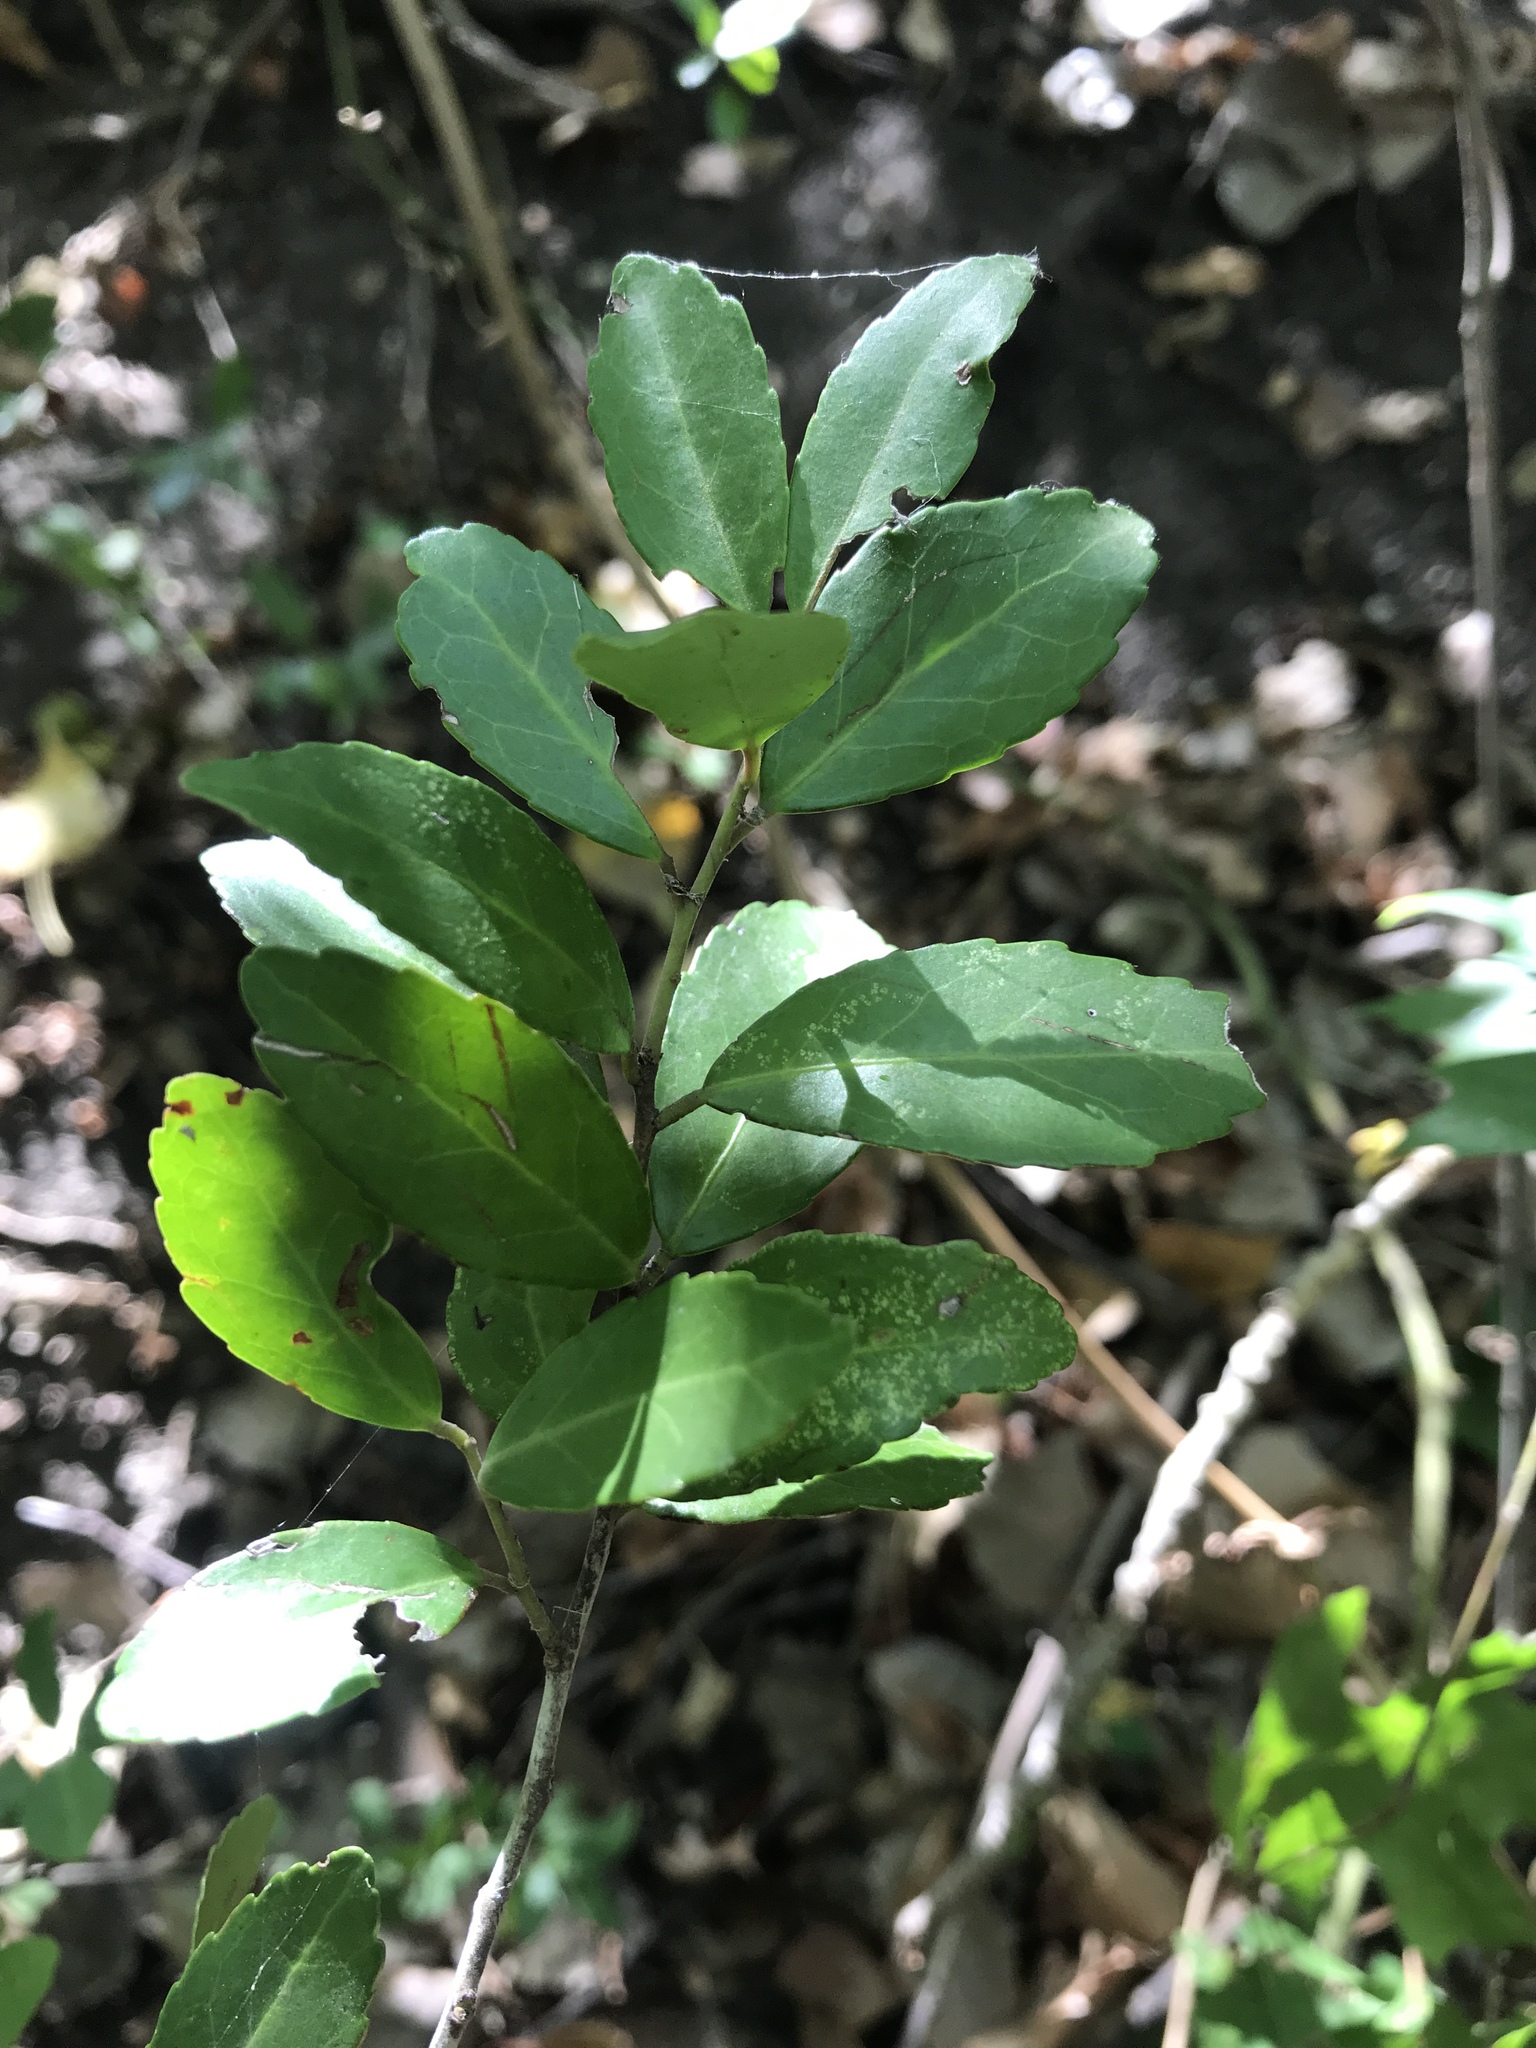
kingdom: Plantae
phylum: Tracheophyta
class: Magnoliopsida
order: Aquifoliales
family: Aquifoliaceae
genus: Ilex
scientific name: Ilex vomitoria
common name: Yaupon holly
